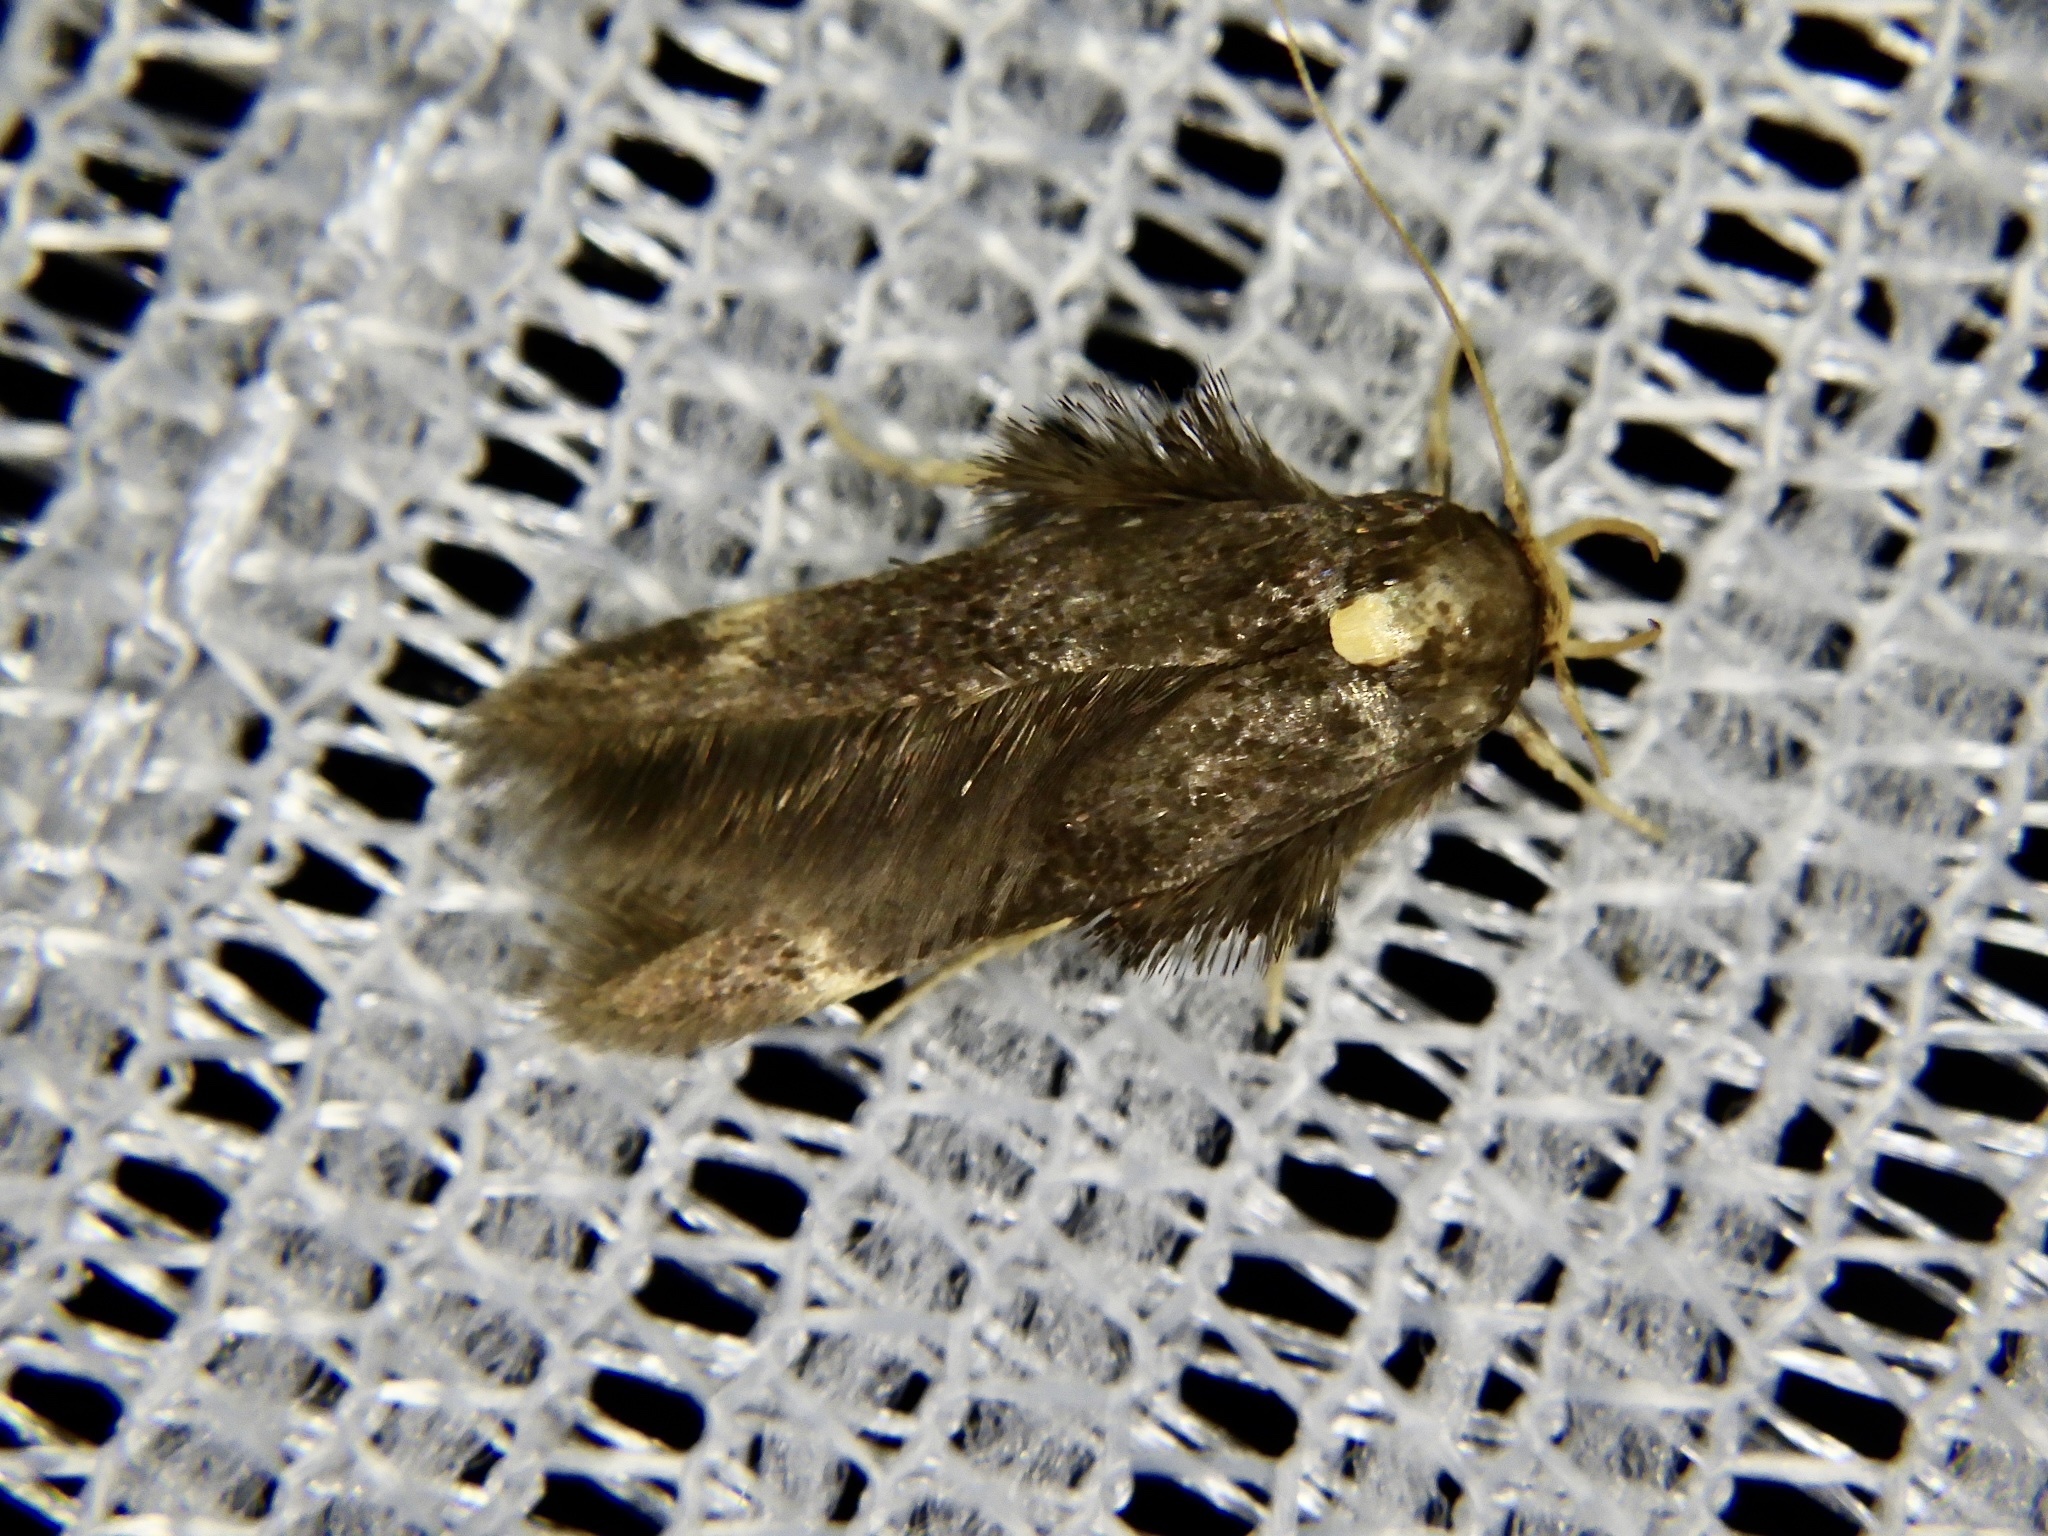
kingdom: Animalia
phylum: Arthropoda
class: Insecta
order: Lepidoptera
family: Stathmopodidae
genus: Stathmopoda
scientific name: Stathmopoda masinissa
